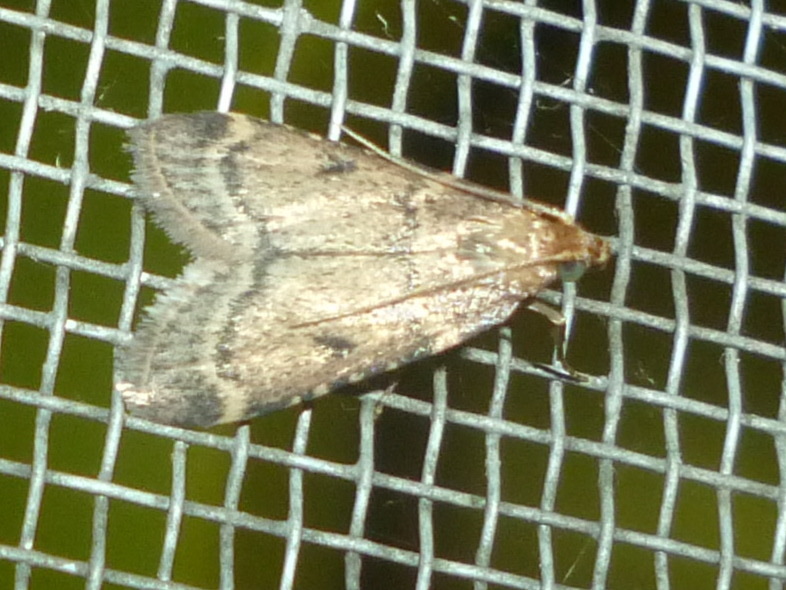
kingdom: Animalia
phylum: Arthropoda
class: Insecta
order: Lepidoptera
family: Pyralidae
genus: Aglossa
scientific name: Aglossa disciferalis
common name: Pink-masked pyralid moth
